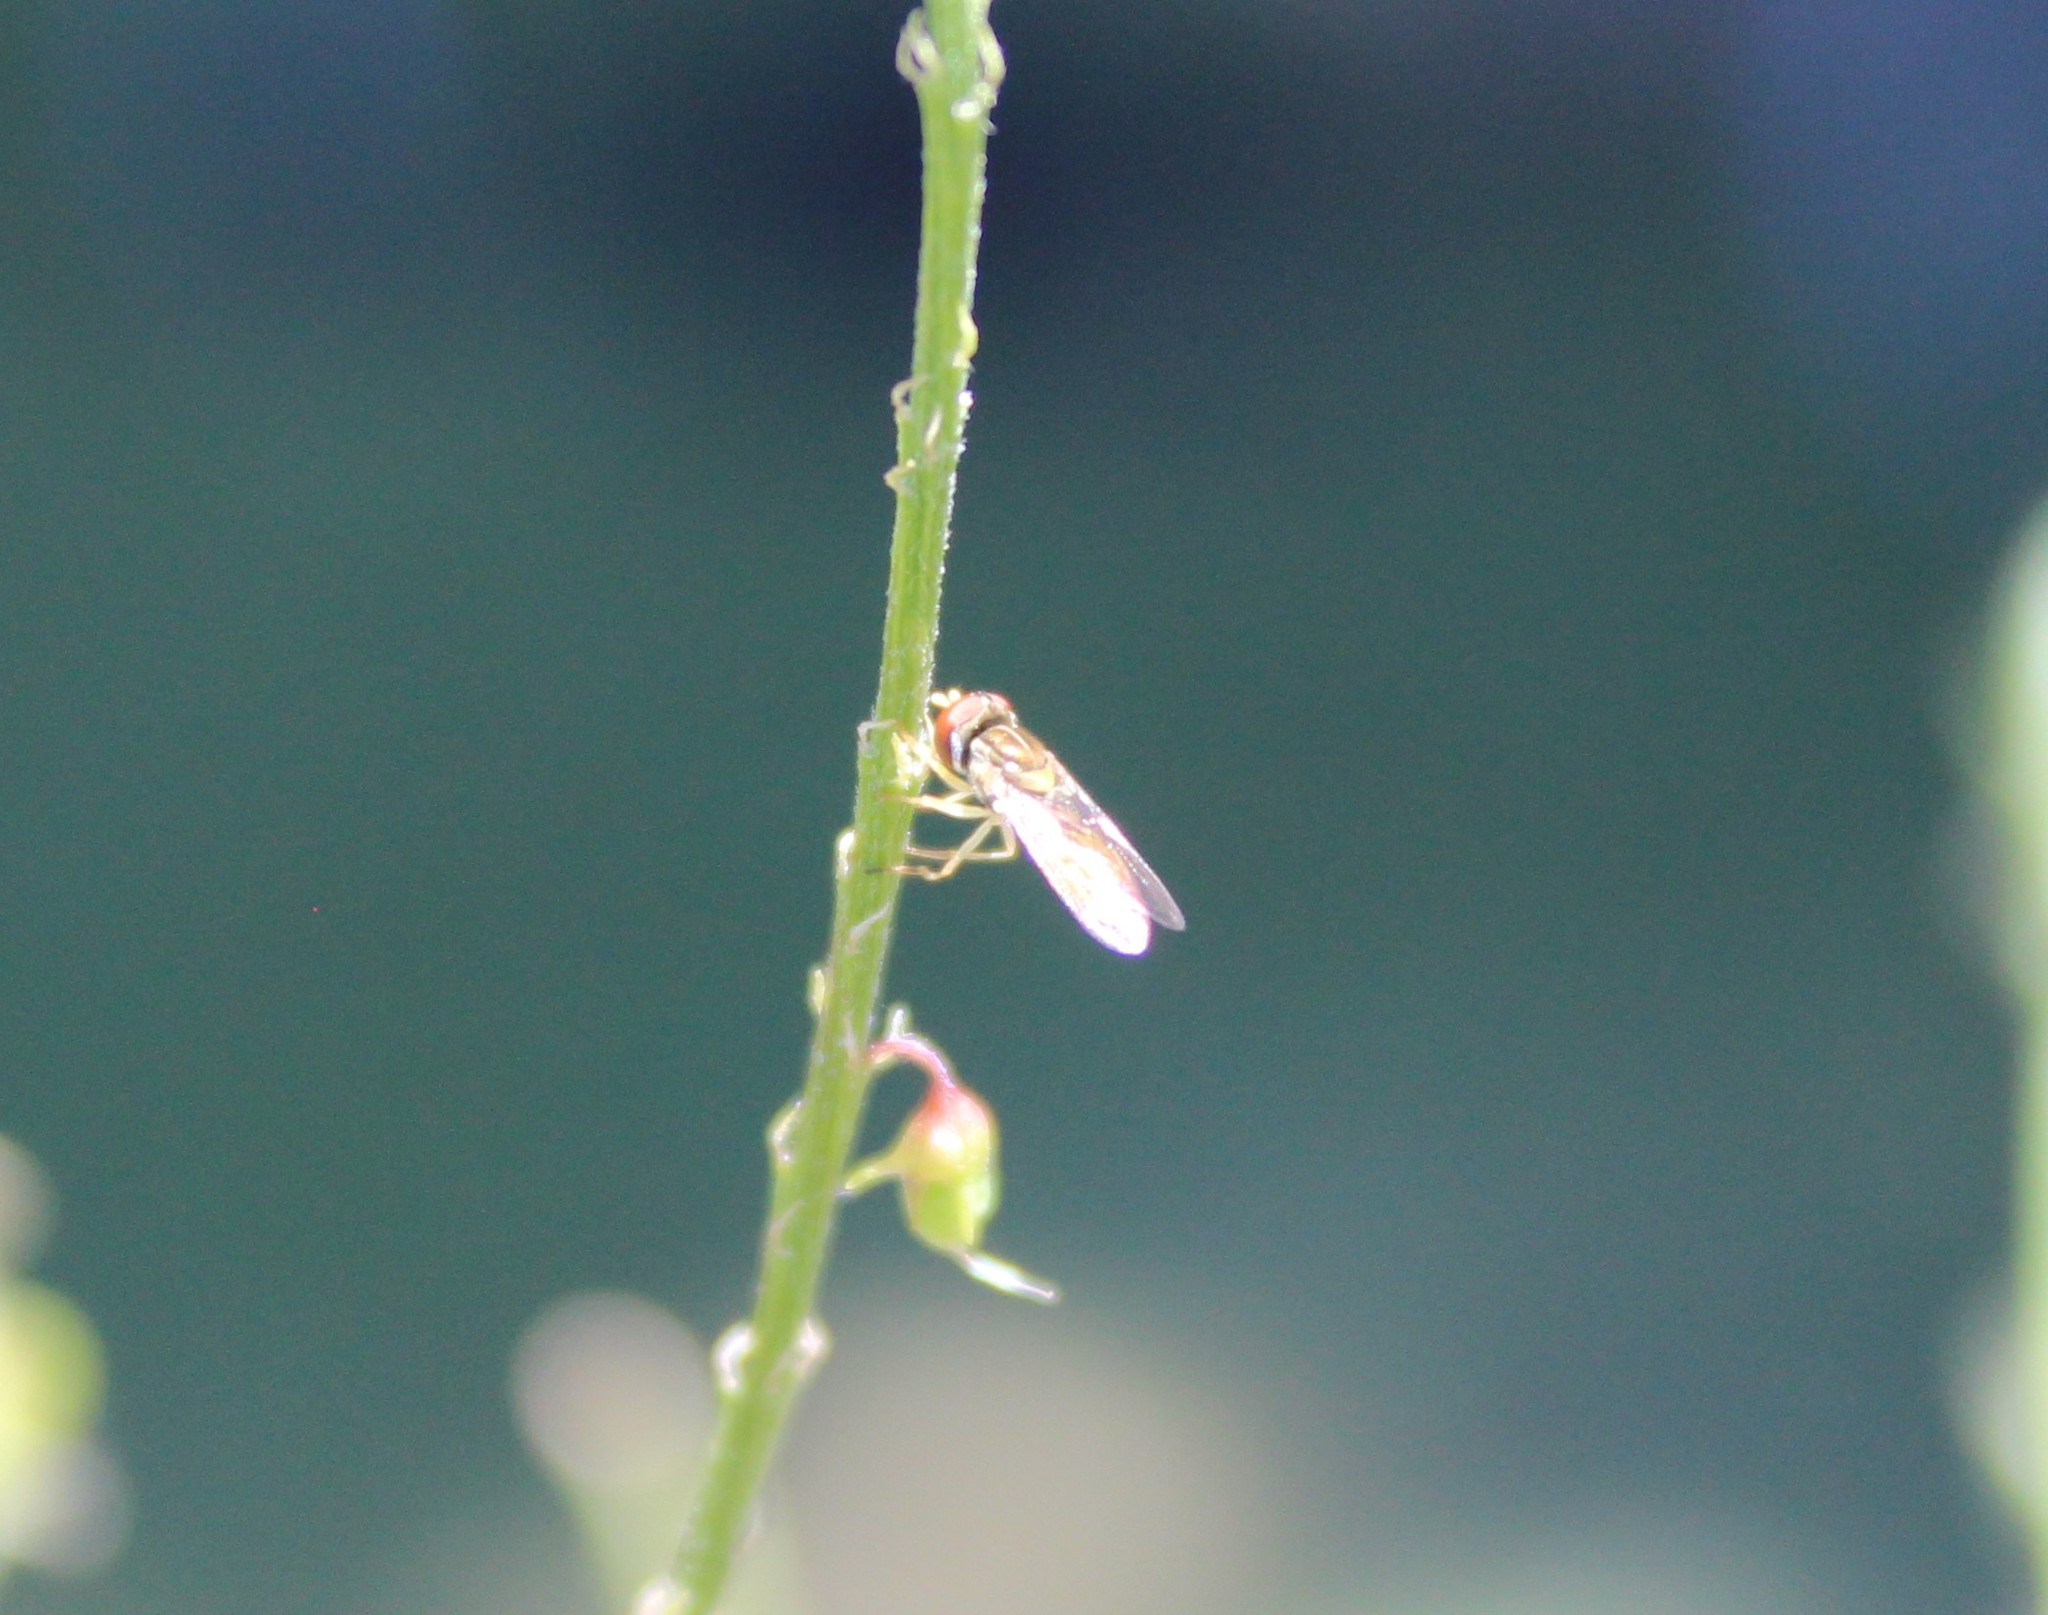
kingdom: Animalia
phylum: Arthropoda
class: Insecta
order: Diptera
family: Syrphidae
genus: Toxomerus
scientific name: Toxomerus marginatus
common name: Syrphid fly
